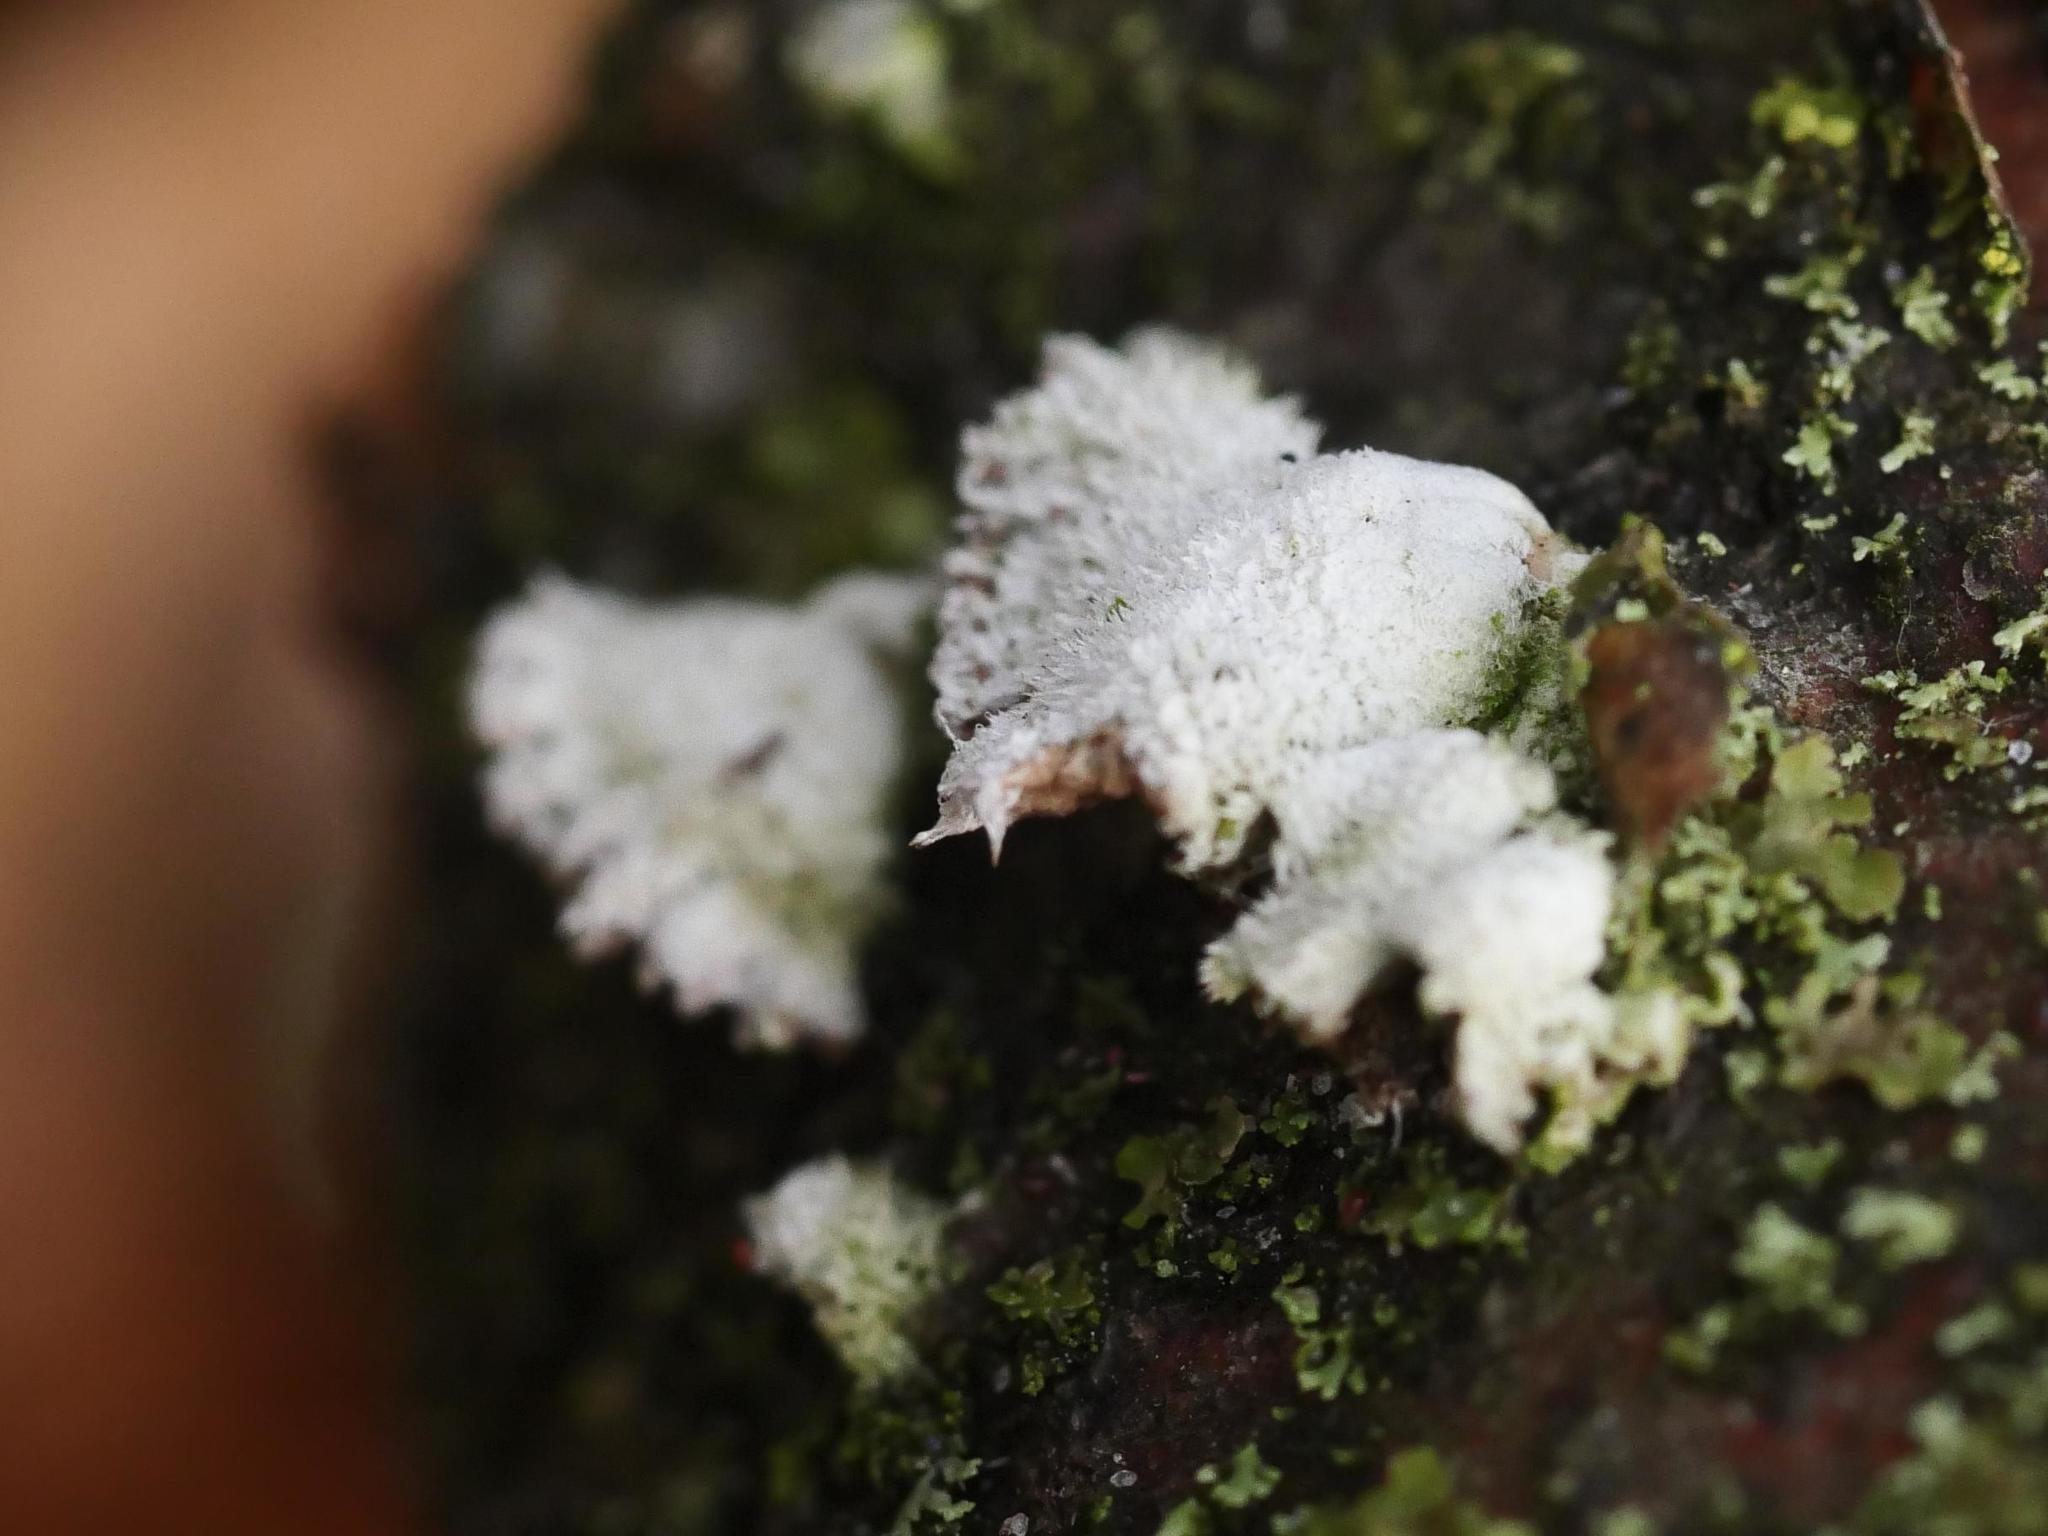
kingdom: Fungi
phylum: Basidiomycota
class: Agaricomycetes
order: Agaricales
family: Schizophyllaceae
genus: Schizophyllum
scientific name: Schizophyllum commune
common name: Common porecrust
